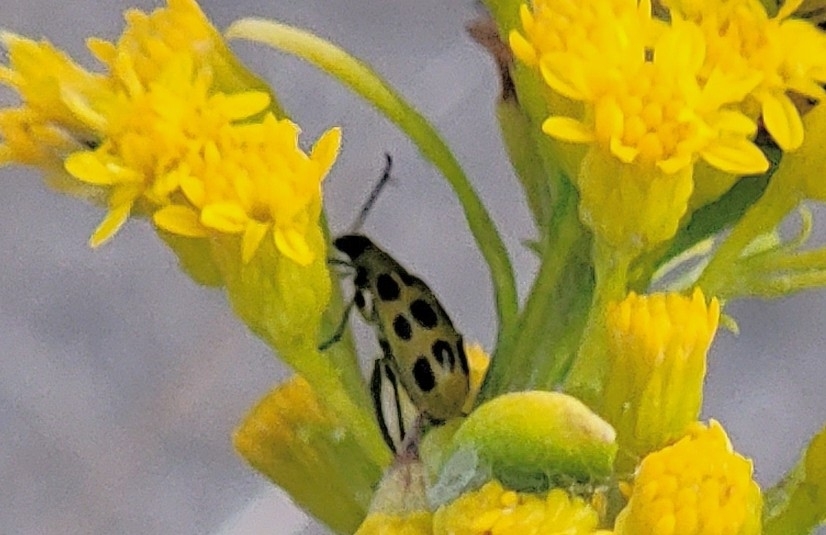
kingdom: Animalia
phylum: Arthropoda
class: Insecta
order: Coleoptera
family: Chrysomelidae
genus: Diabrotica
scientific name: Diabrotica undecimpunctata
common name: Spotted cucumber beetle
